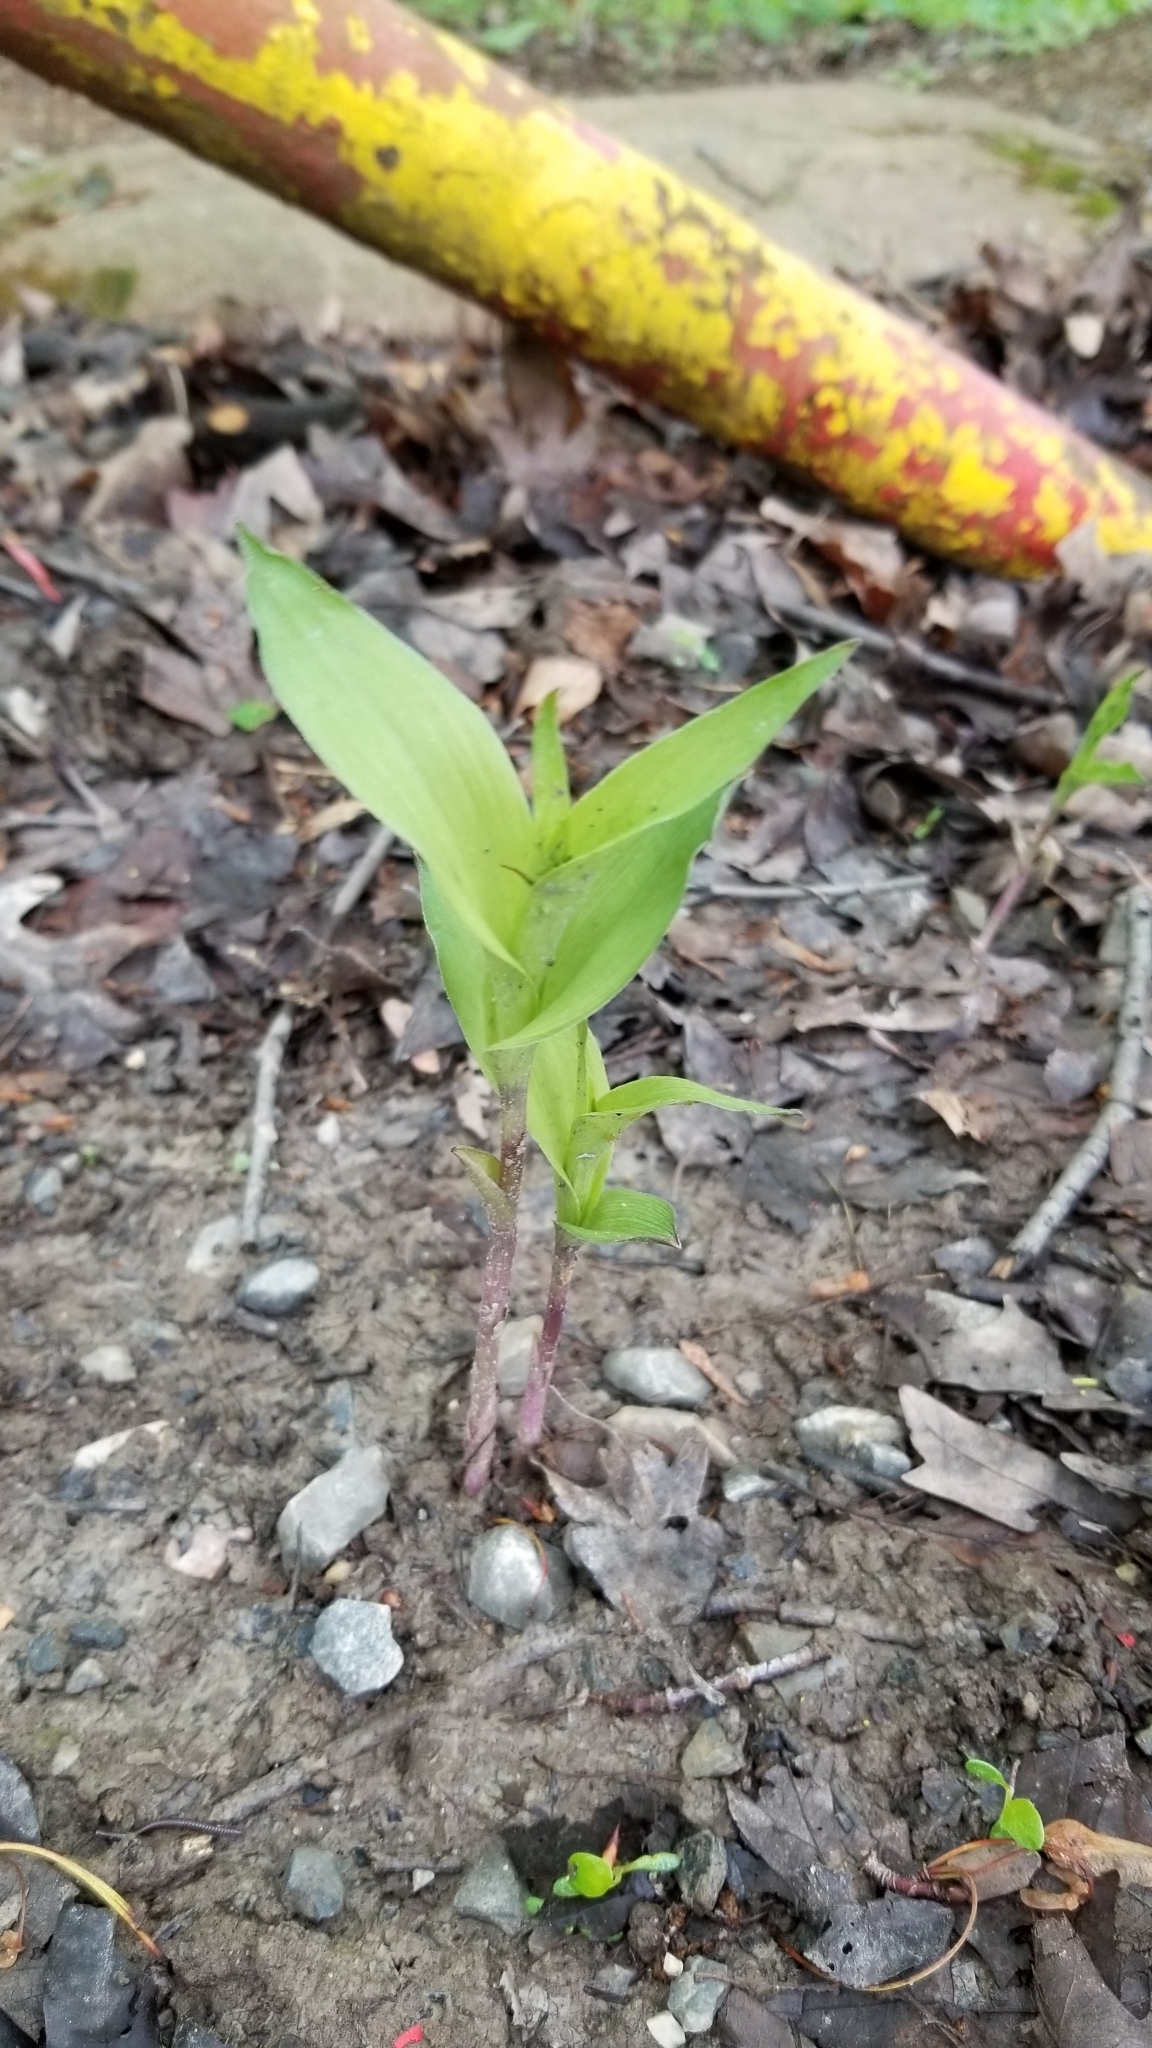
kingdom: Plantae
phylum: Tracheophyta
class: Liliopsida
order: Asparagales
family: Orchidaceae
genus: Epipactis
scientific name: Epipactis helleborine
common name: Broad-leaved helleborine
